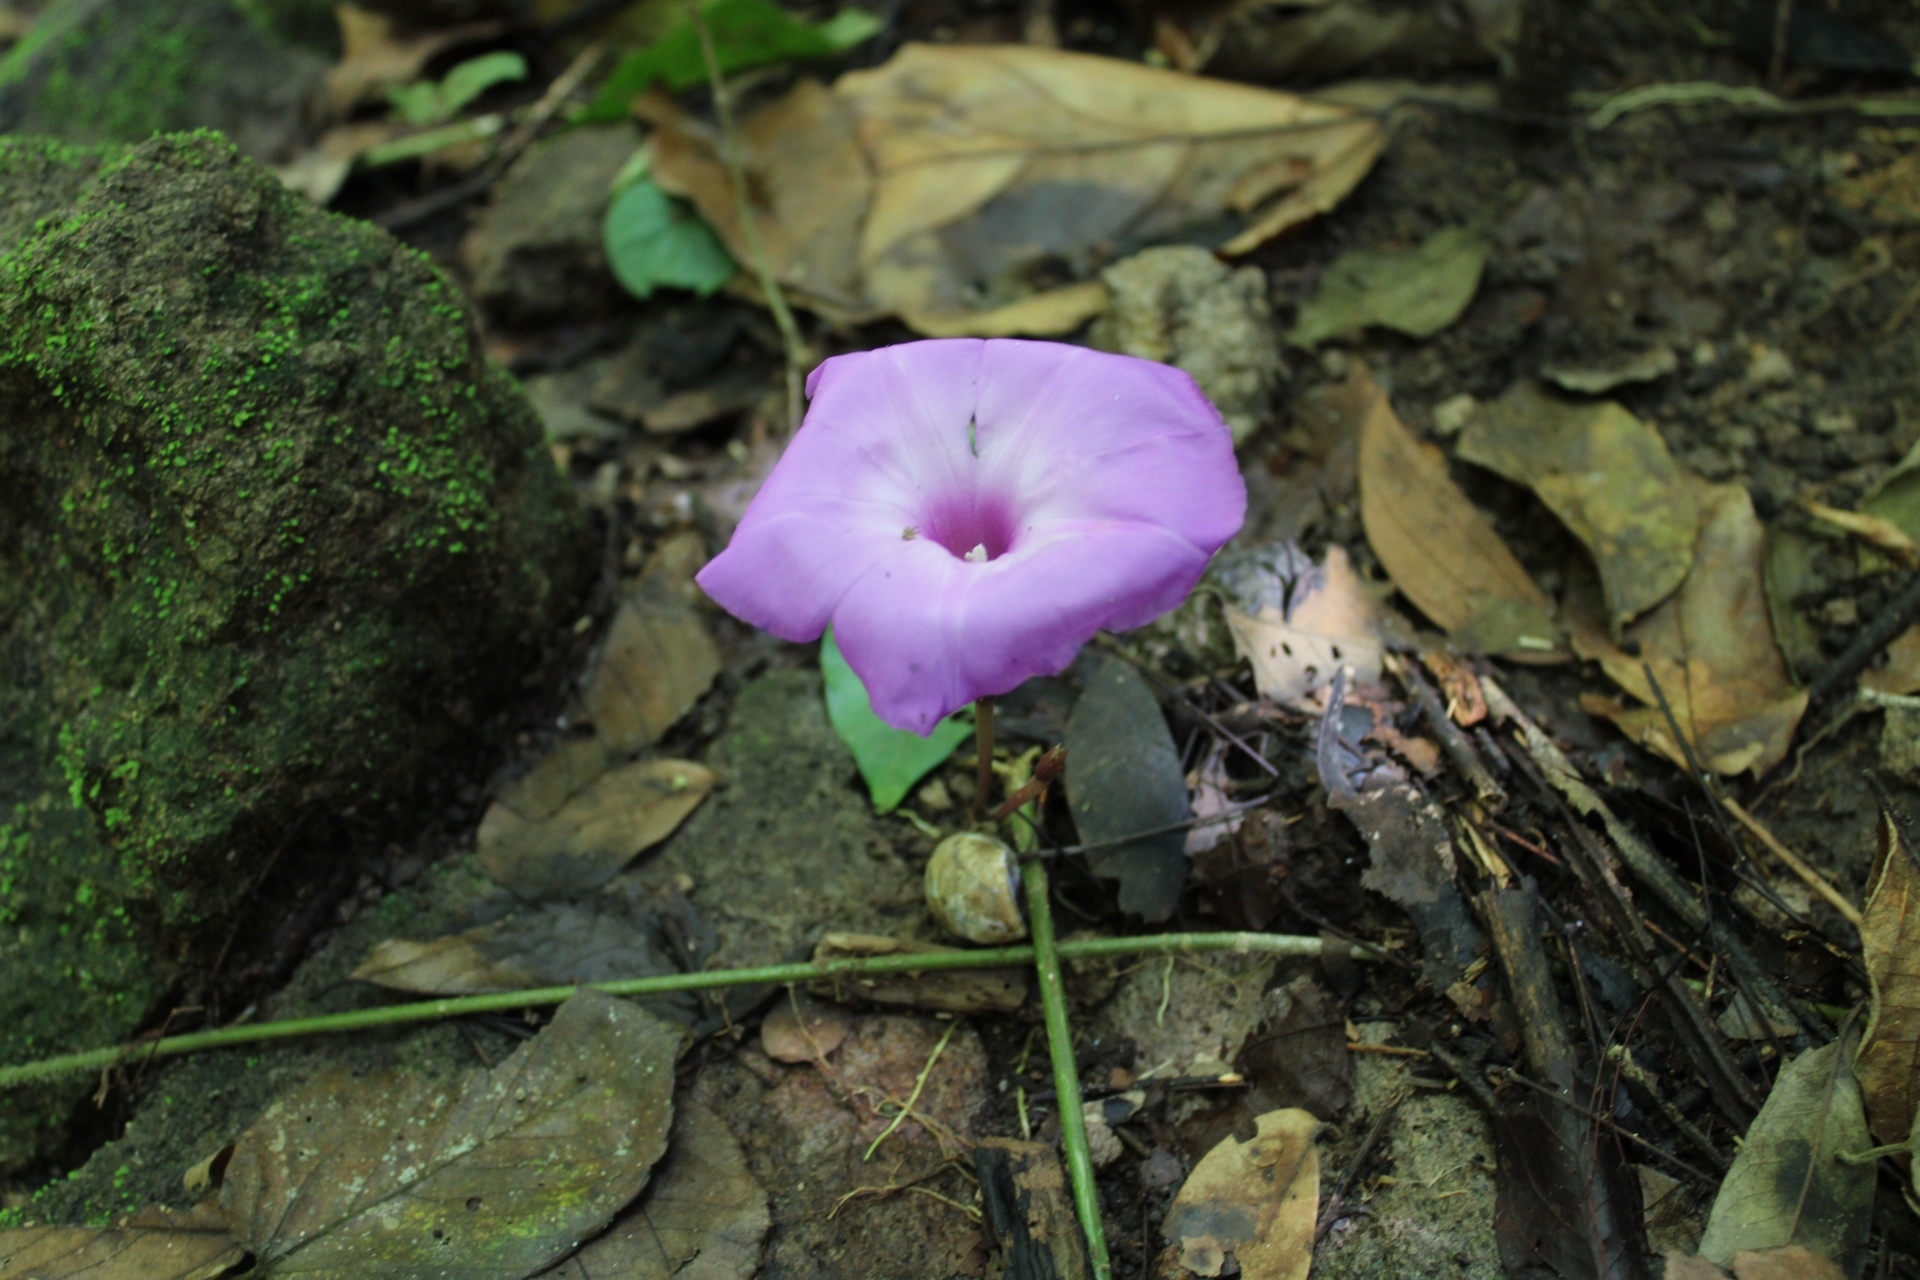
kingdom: Plantae
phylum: Tracheophyta
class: Magnoliopsida
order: Solanales
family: Convolvulaceae
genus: Ipomoea
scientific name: Ipomoea regnellii
